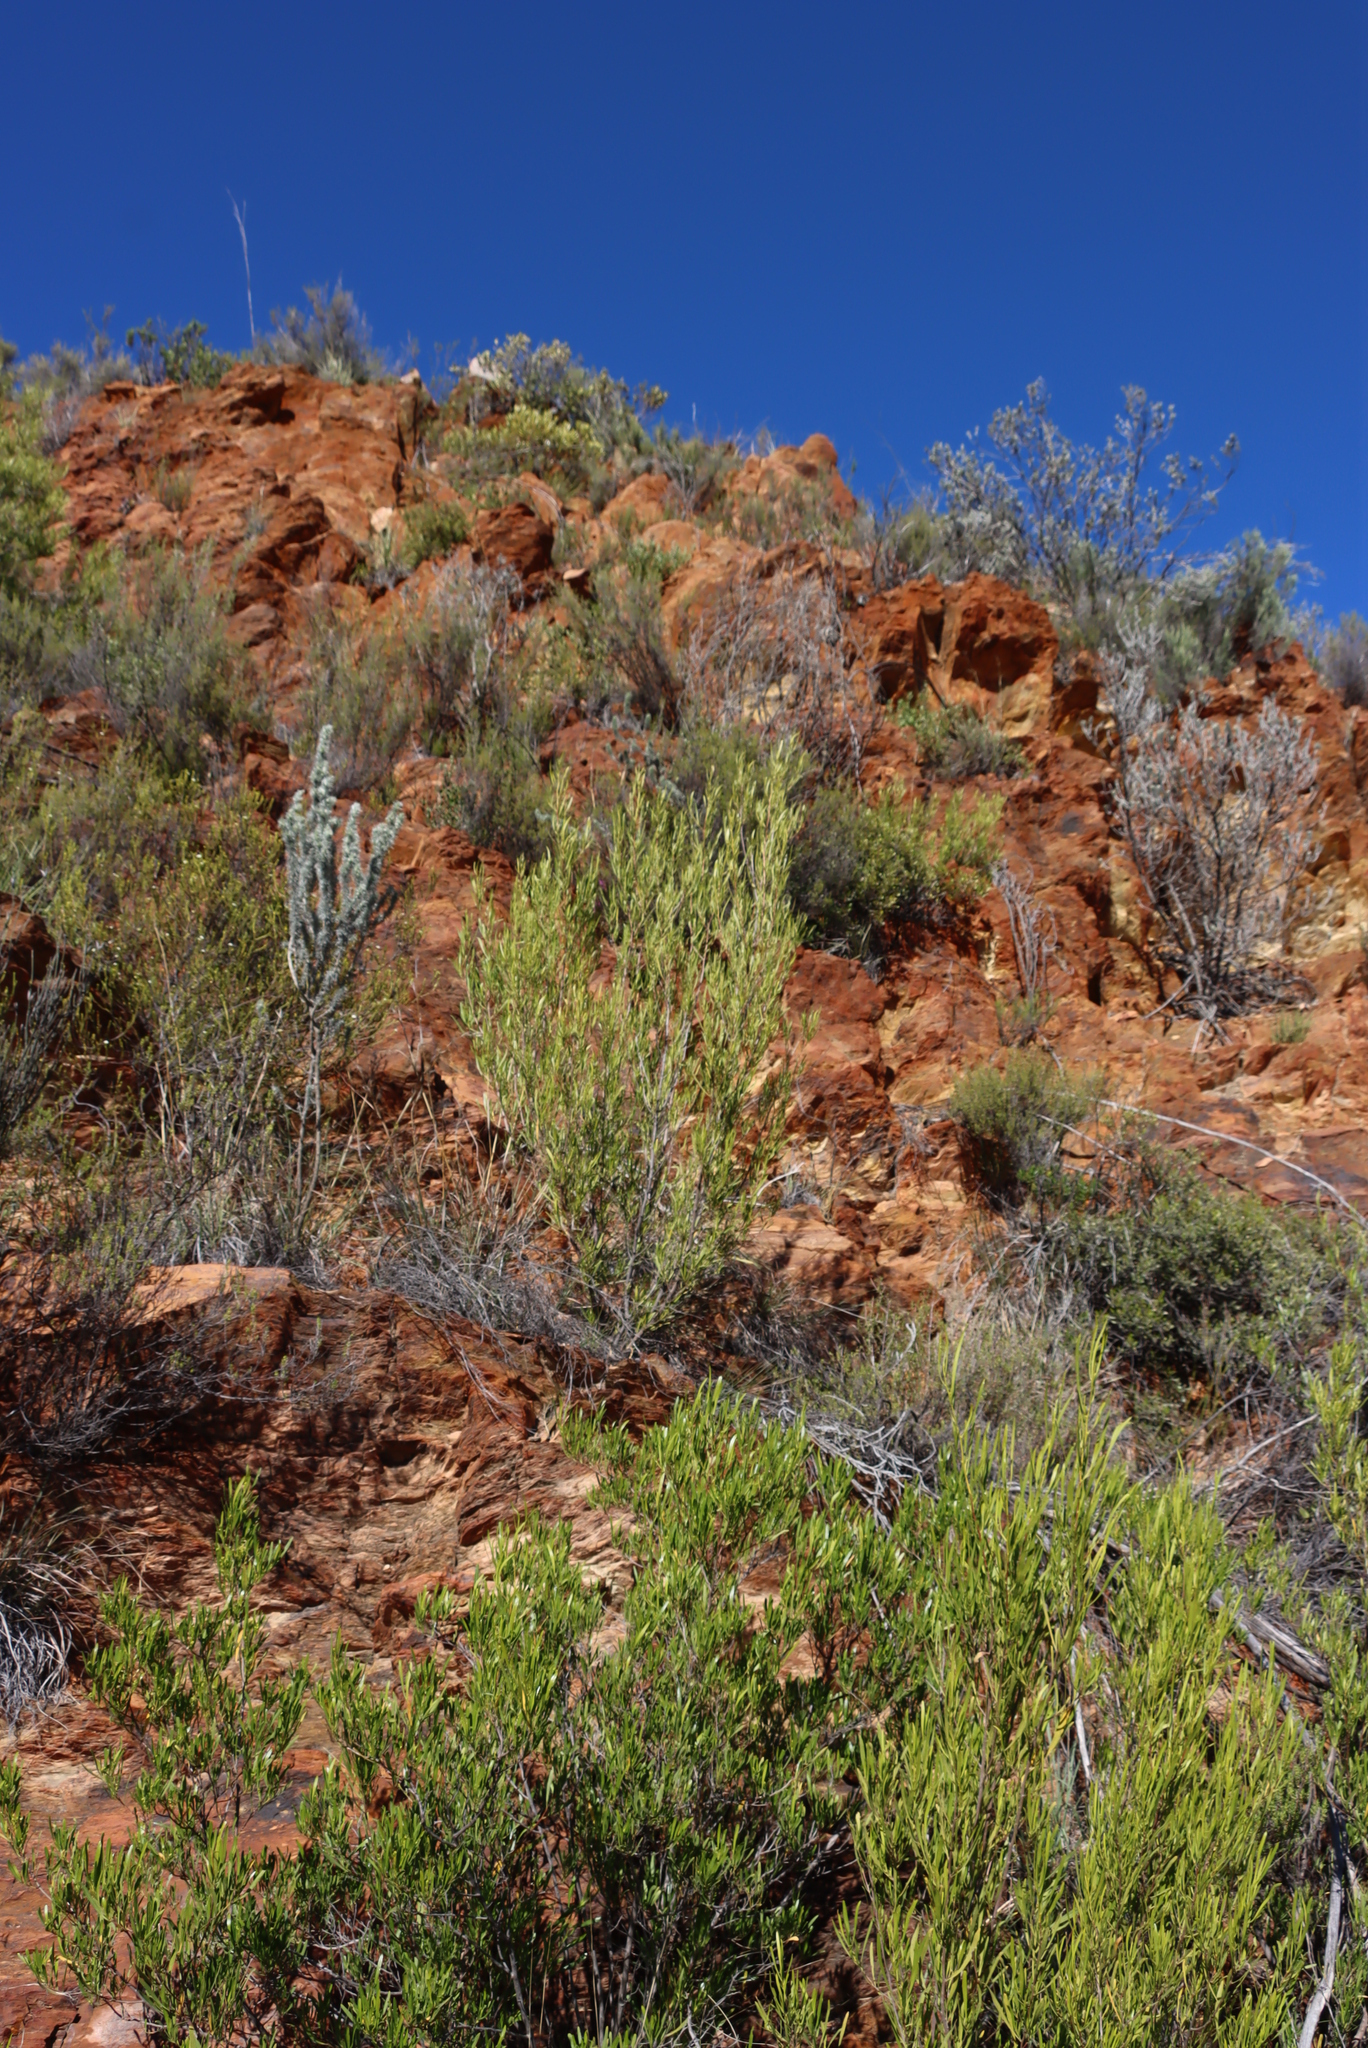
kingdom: Plantae
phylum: Tracheophyta
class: Magnoliopsida
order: Sapindales
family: Sapindaceae
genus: Dodonaea
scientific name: Dodonaea viscosa
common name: Hopbush
